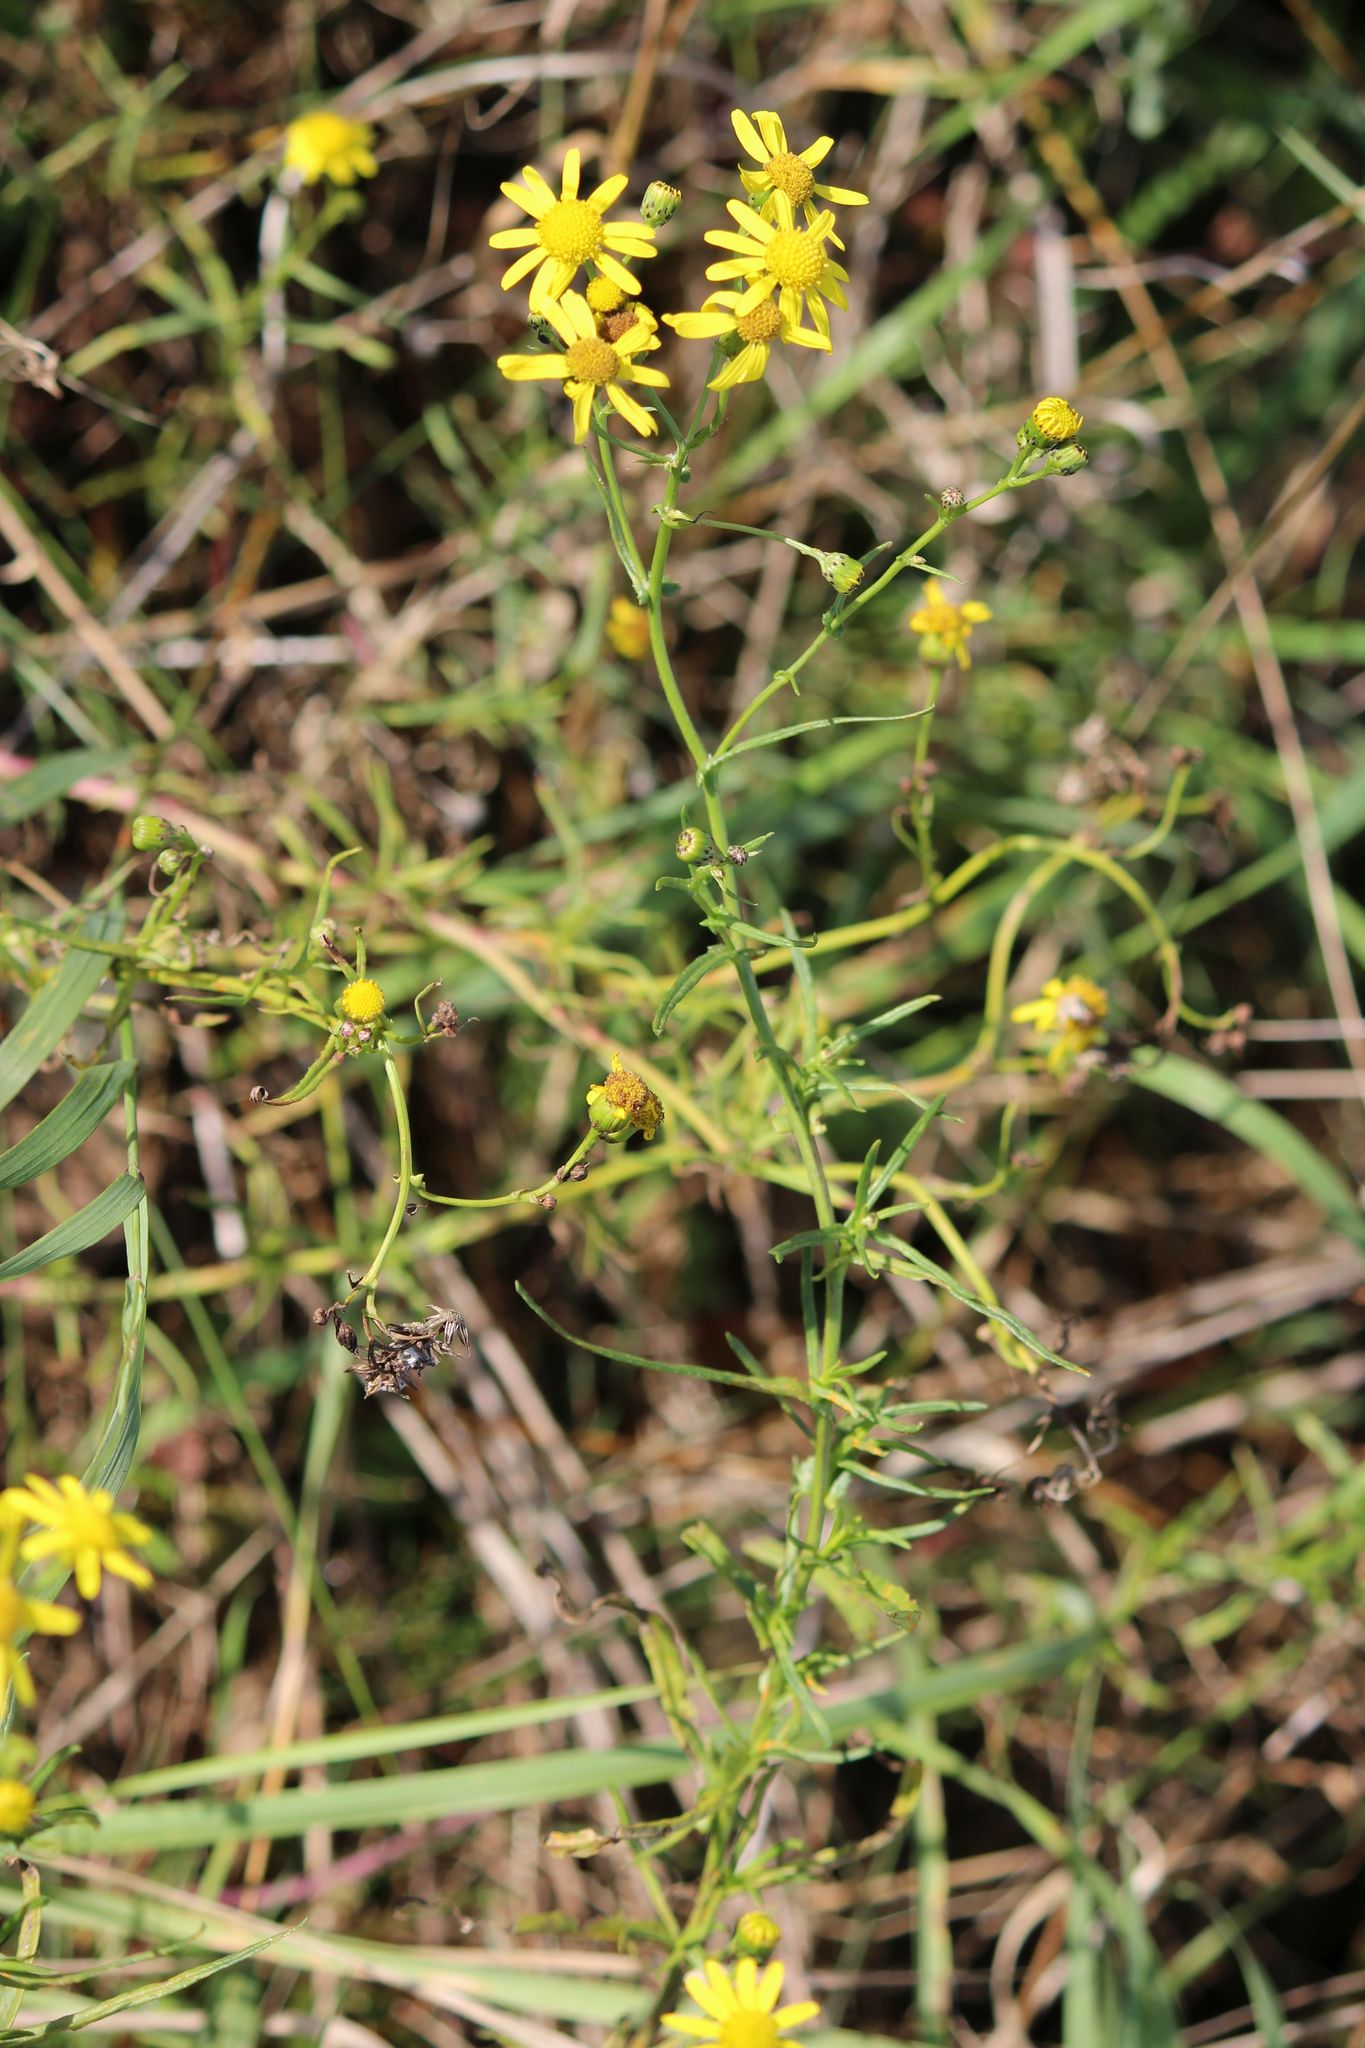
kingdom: Plantae
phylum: Tracheophyta
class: Magnoliopsida
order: Asterales
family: Asteraceae
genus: Senecio
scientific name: Senecio inaequidens
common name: Narrow-leaved ragwort
